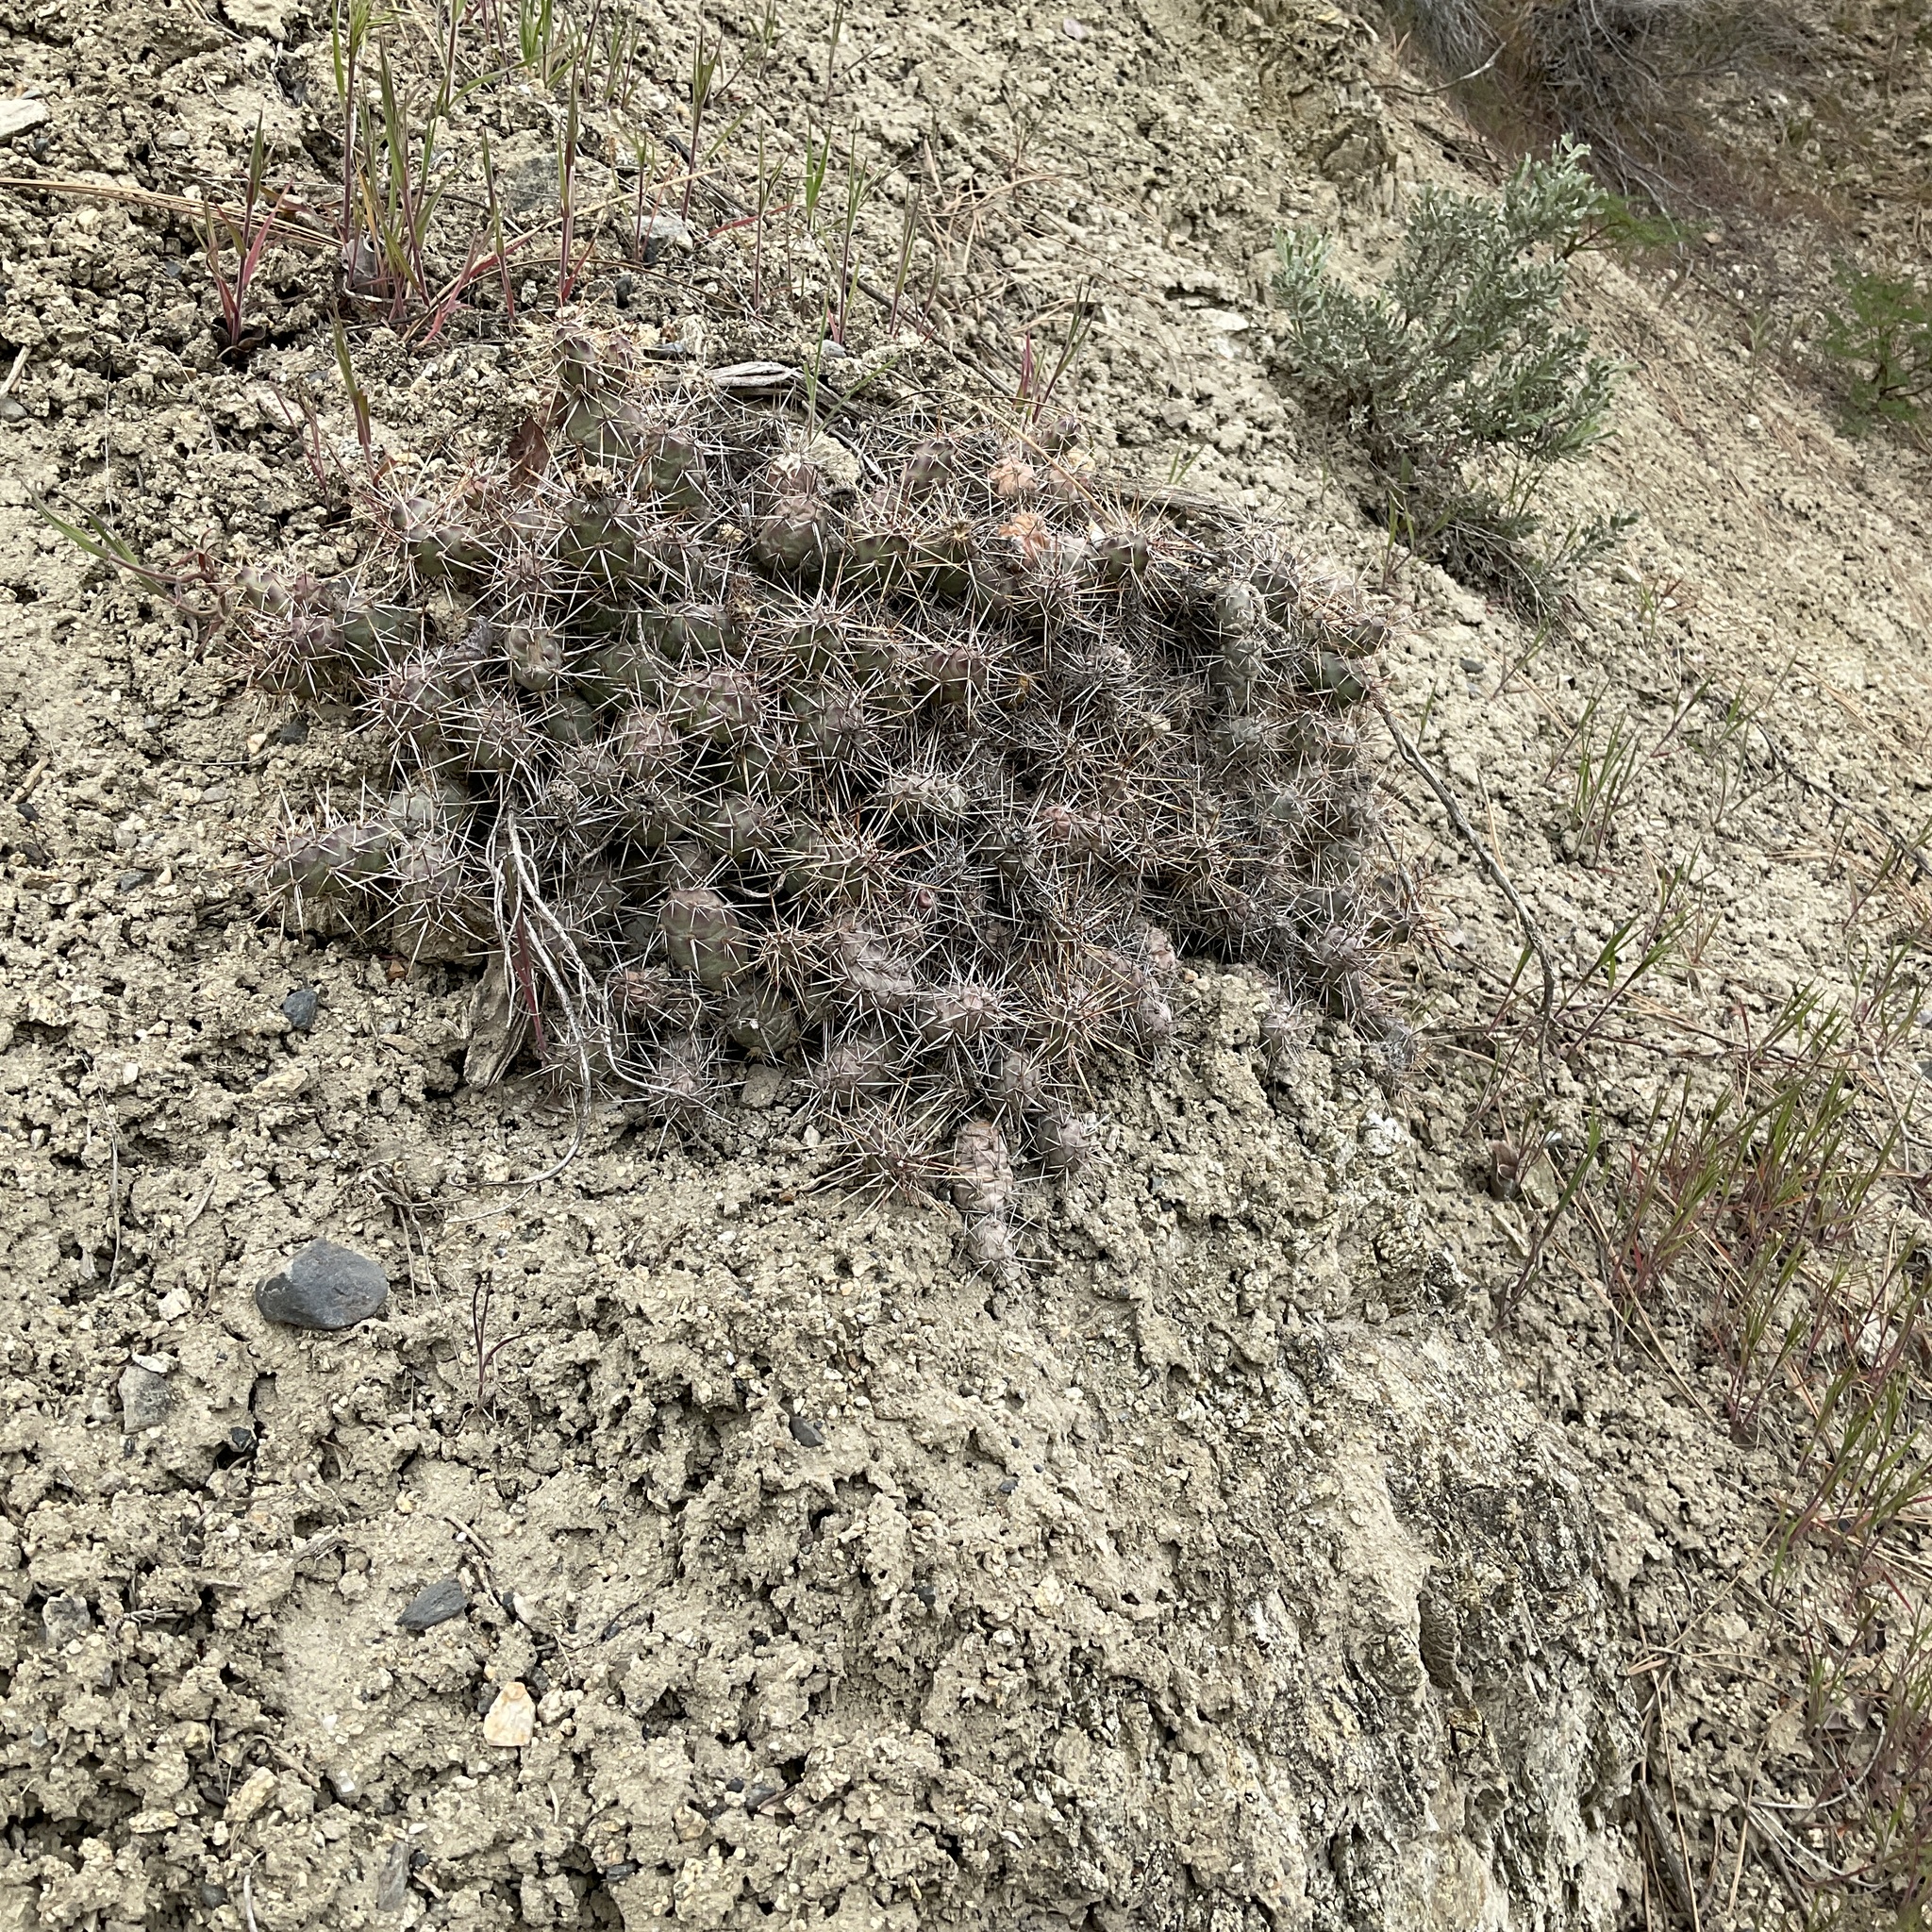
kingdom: Plantae
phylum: Tracheophyta
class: Magnoliopsida
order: Caryophyllales
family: Cactaceae
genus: Opuntia
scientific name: Opuntia fragilis
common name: Brittle cactus
